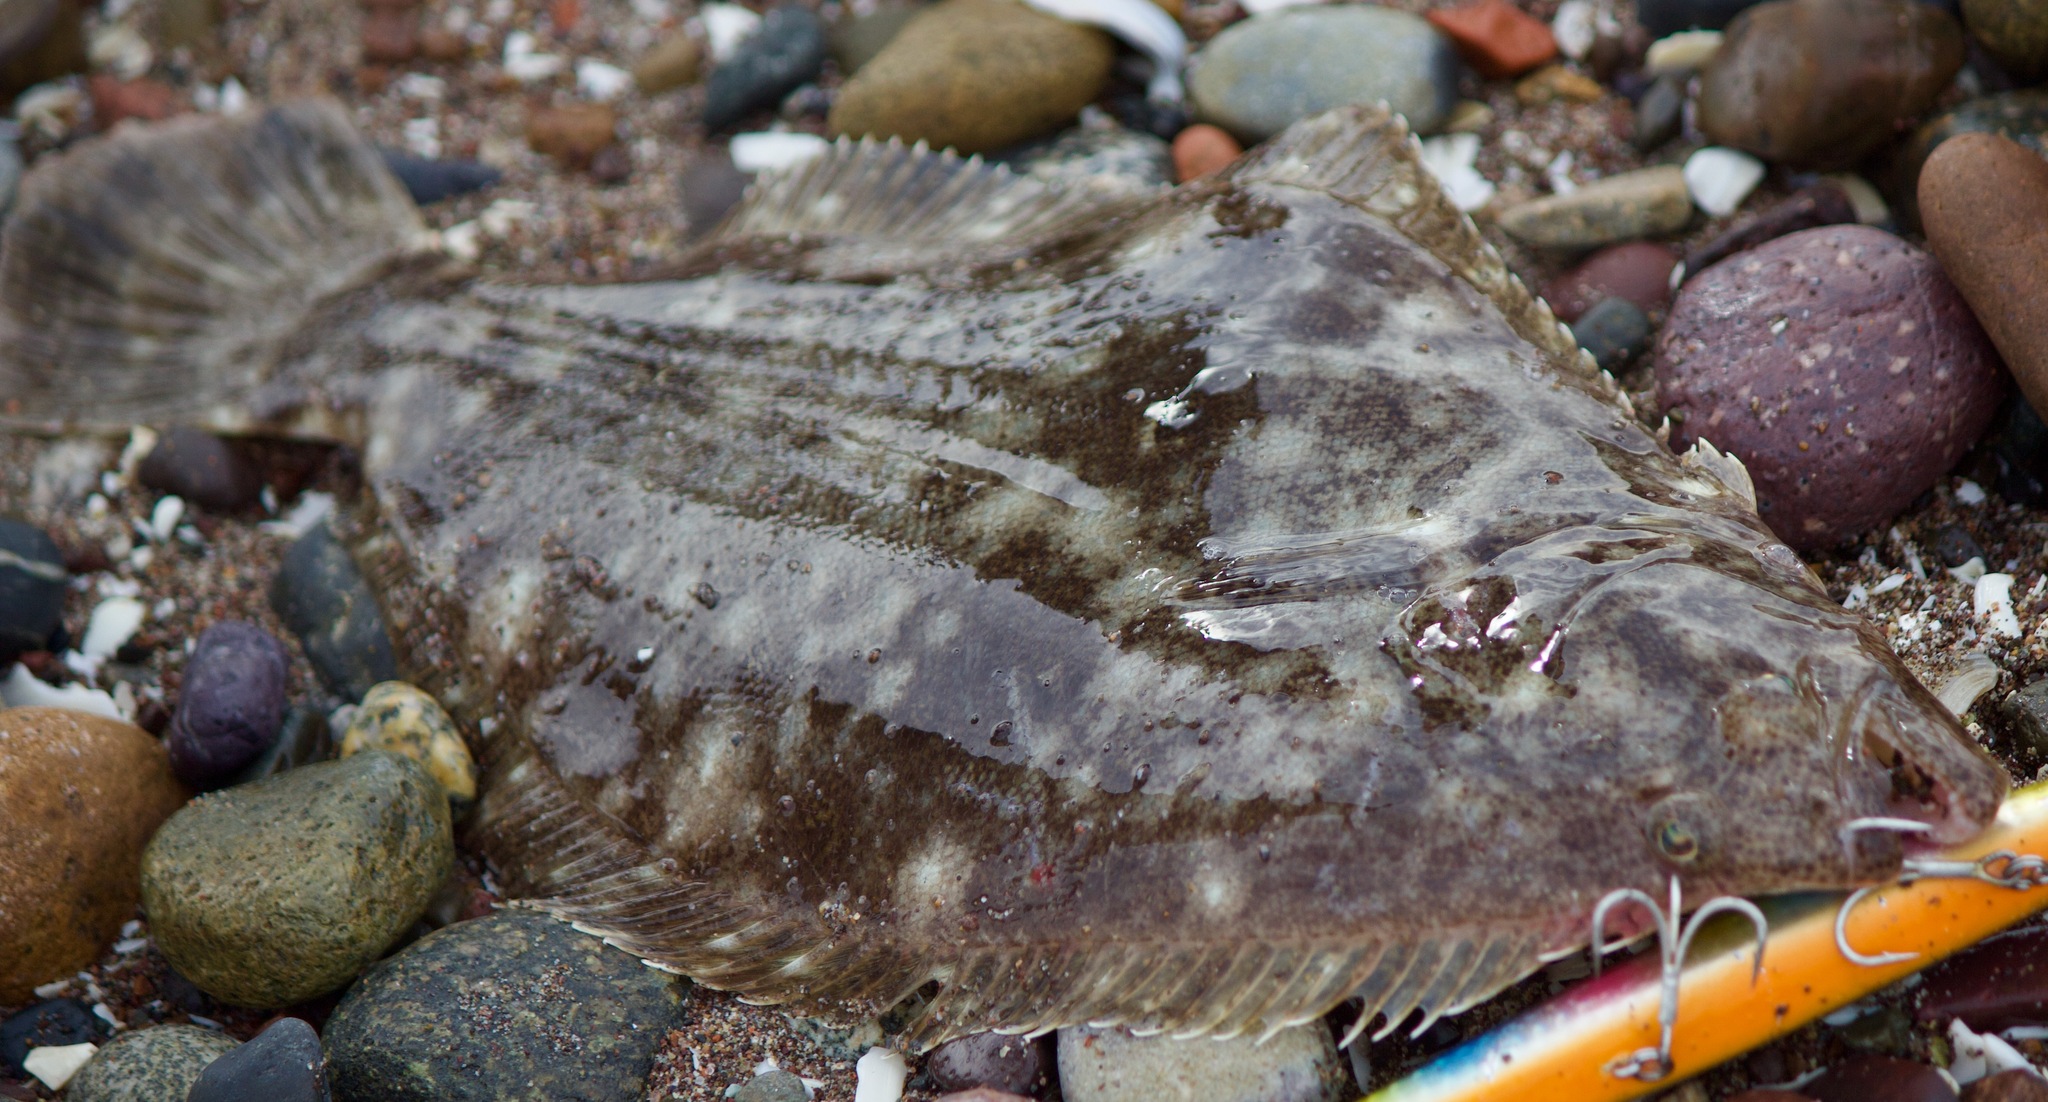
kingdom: Animalia
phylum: Chordata
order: Pleuronectiformes
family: Paralichthyidae
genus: Paralichthys
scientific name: Paralichthys adspersus
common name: Fine flounder
